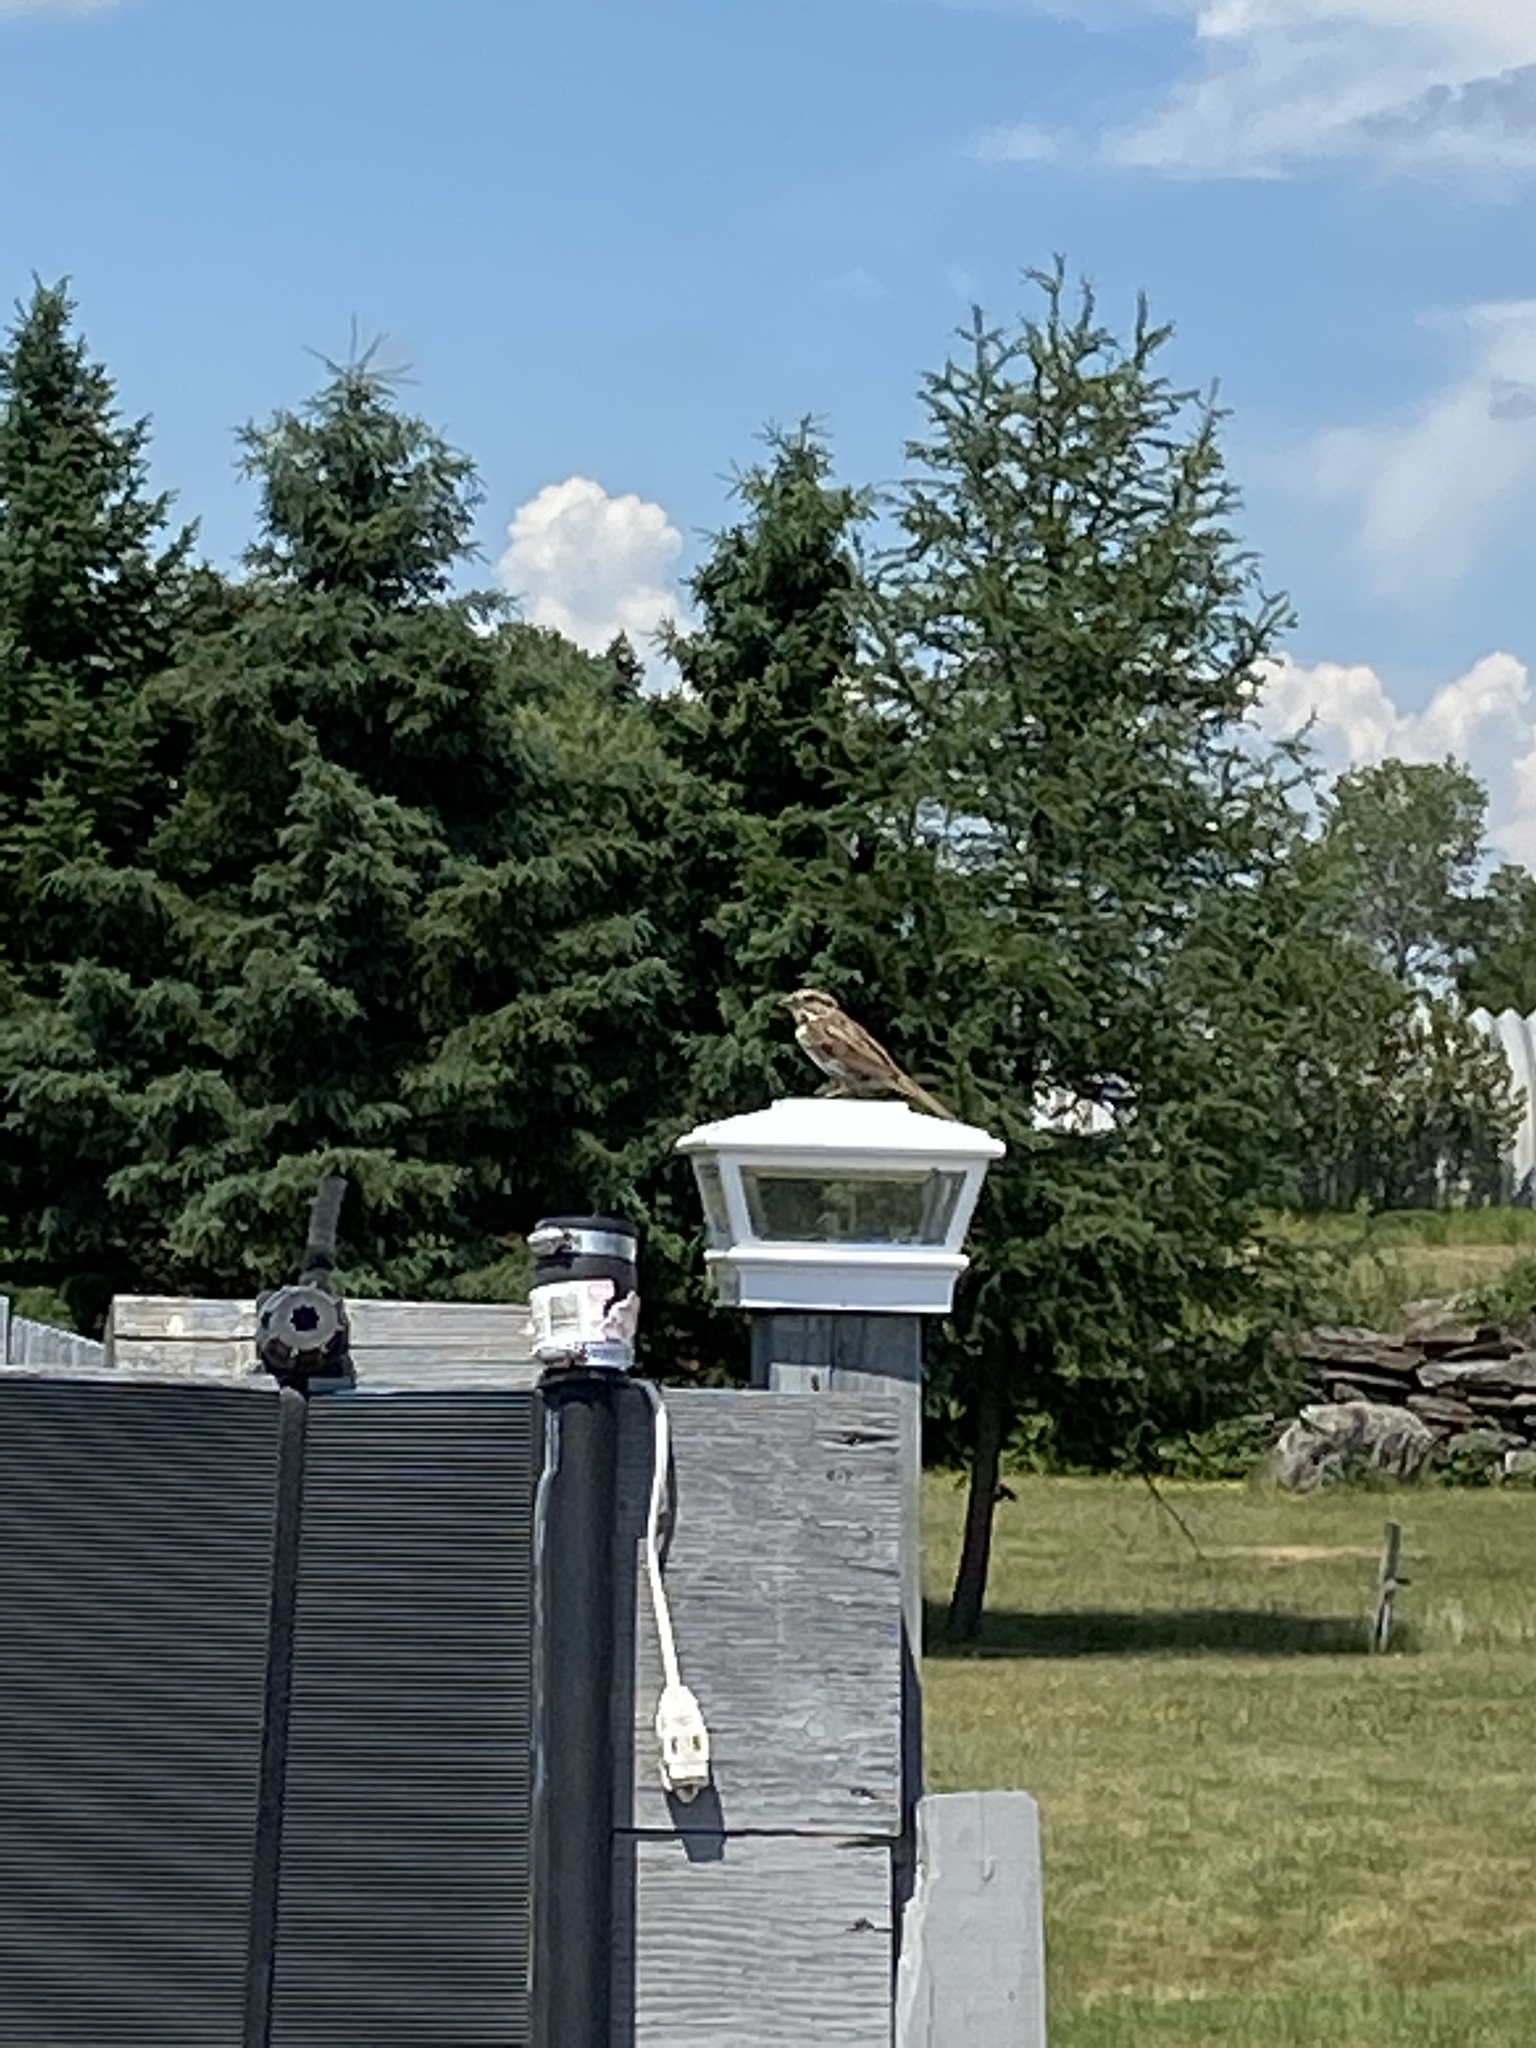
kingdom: Animalia
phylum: Chordata
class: Aves
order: Passeriformes
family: Passerellidae
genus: Melospiza
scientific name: Melospiza melodia
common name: Song sparrow
